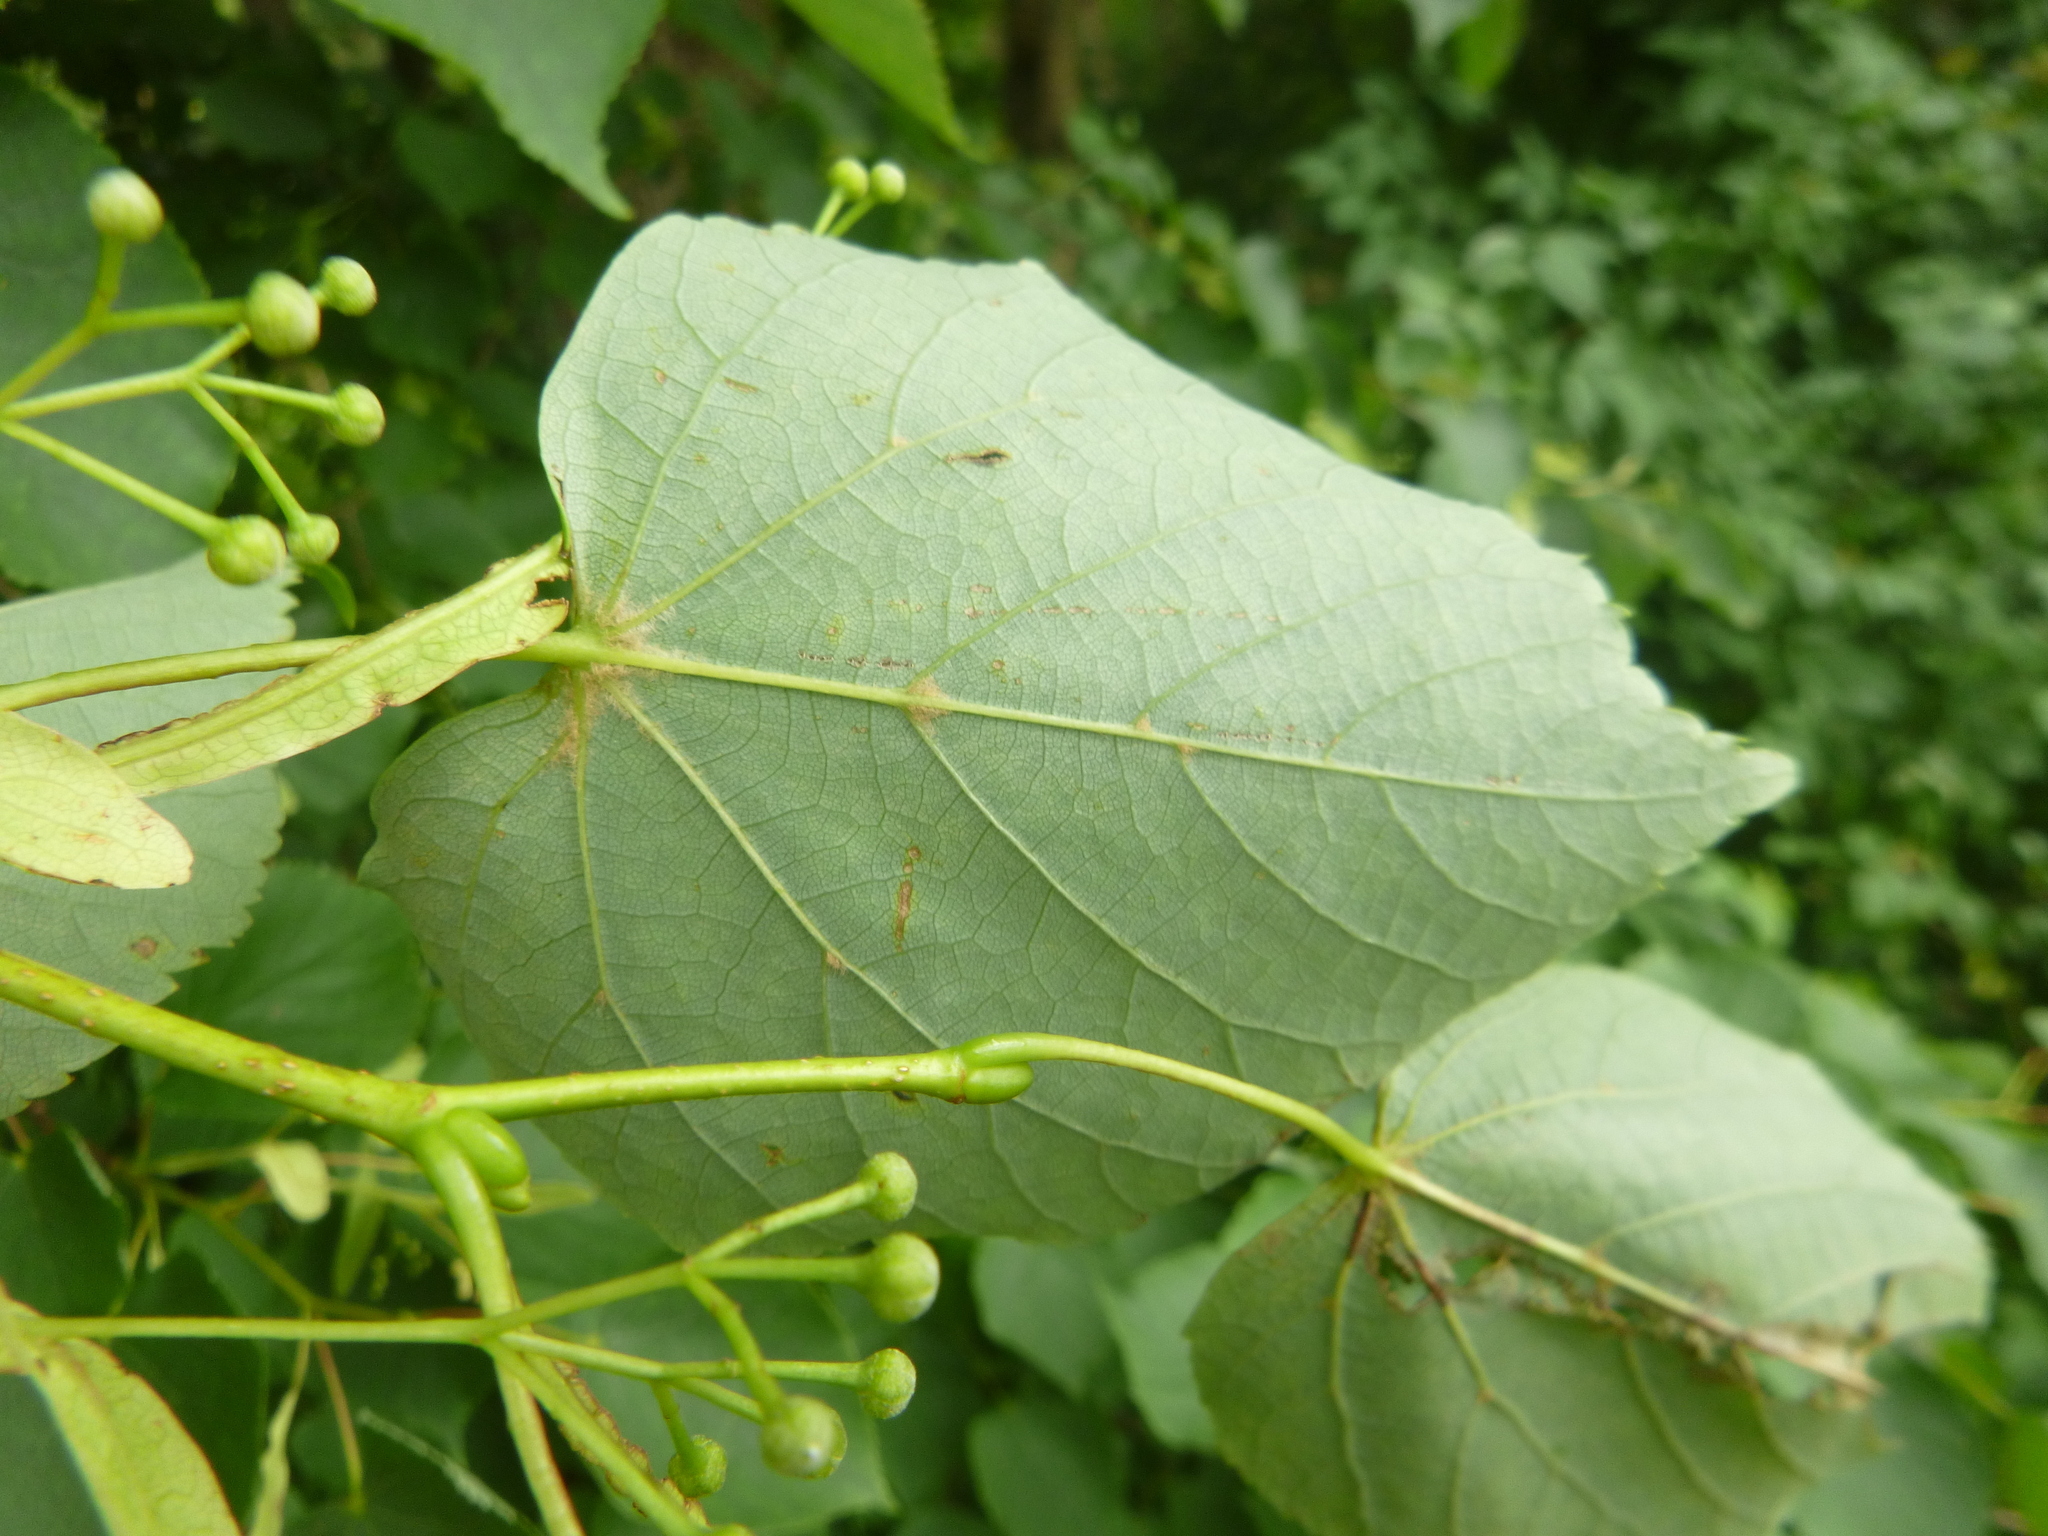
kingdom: Plantae
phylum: Tracheophyta
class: Magnoliopsida
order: Malvales
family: Malvaceae
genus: Tilia
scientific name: Tilia cordata
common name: Small-leaved lime
